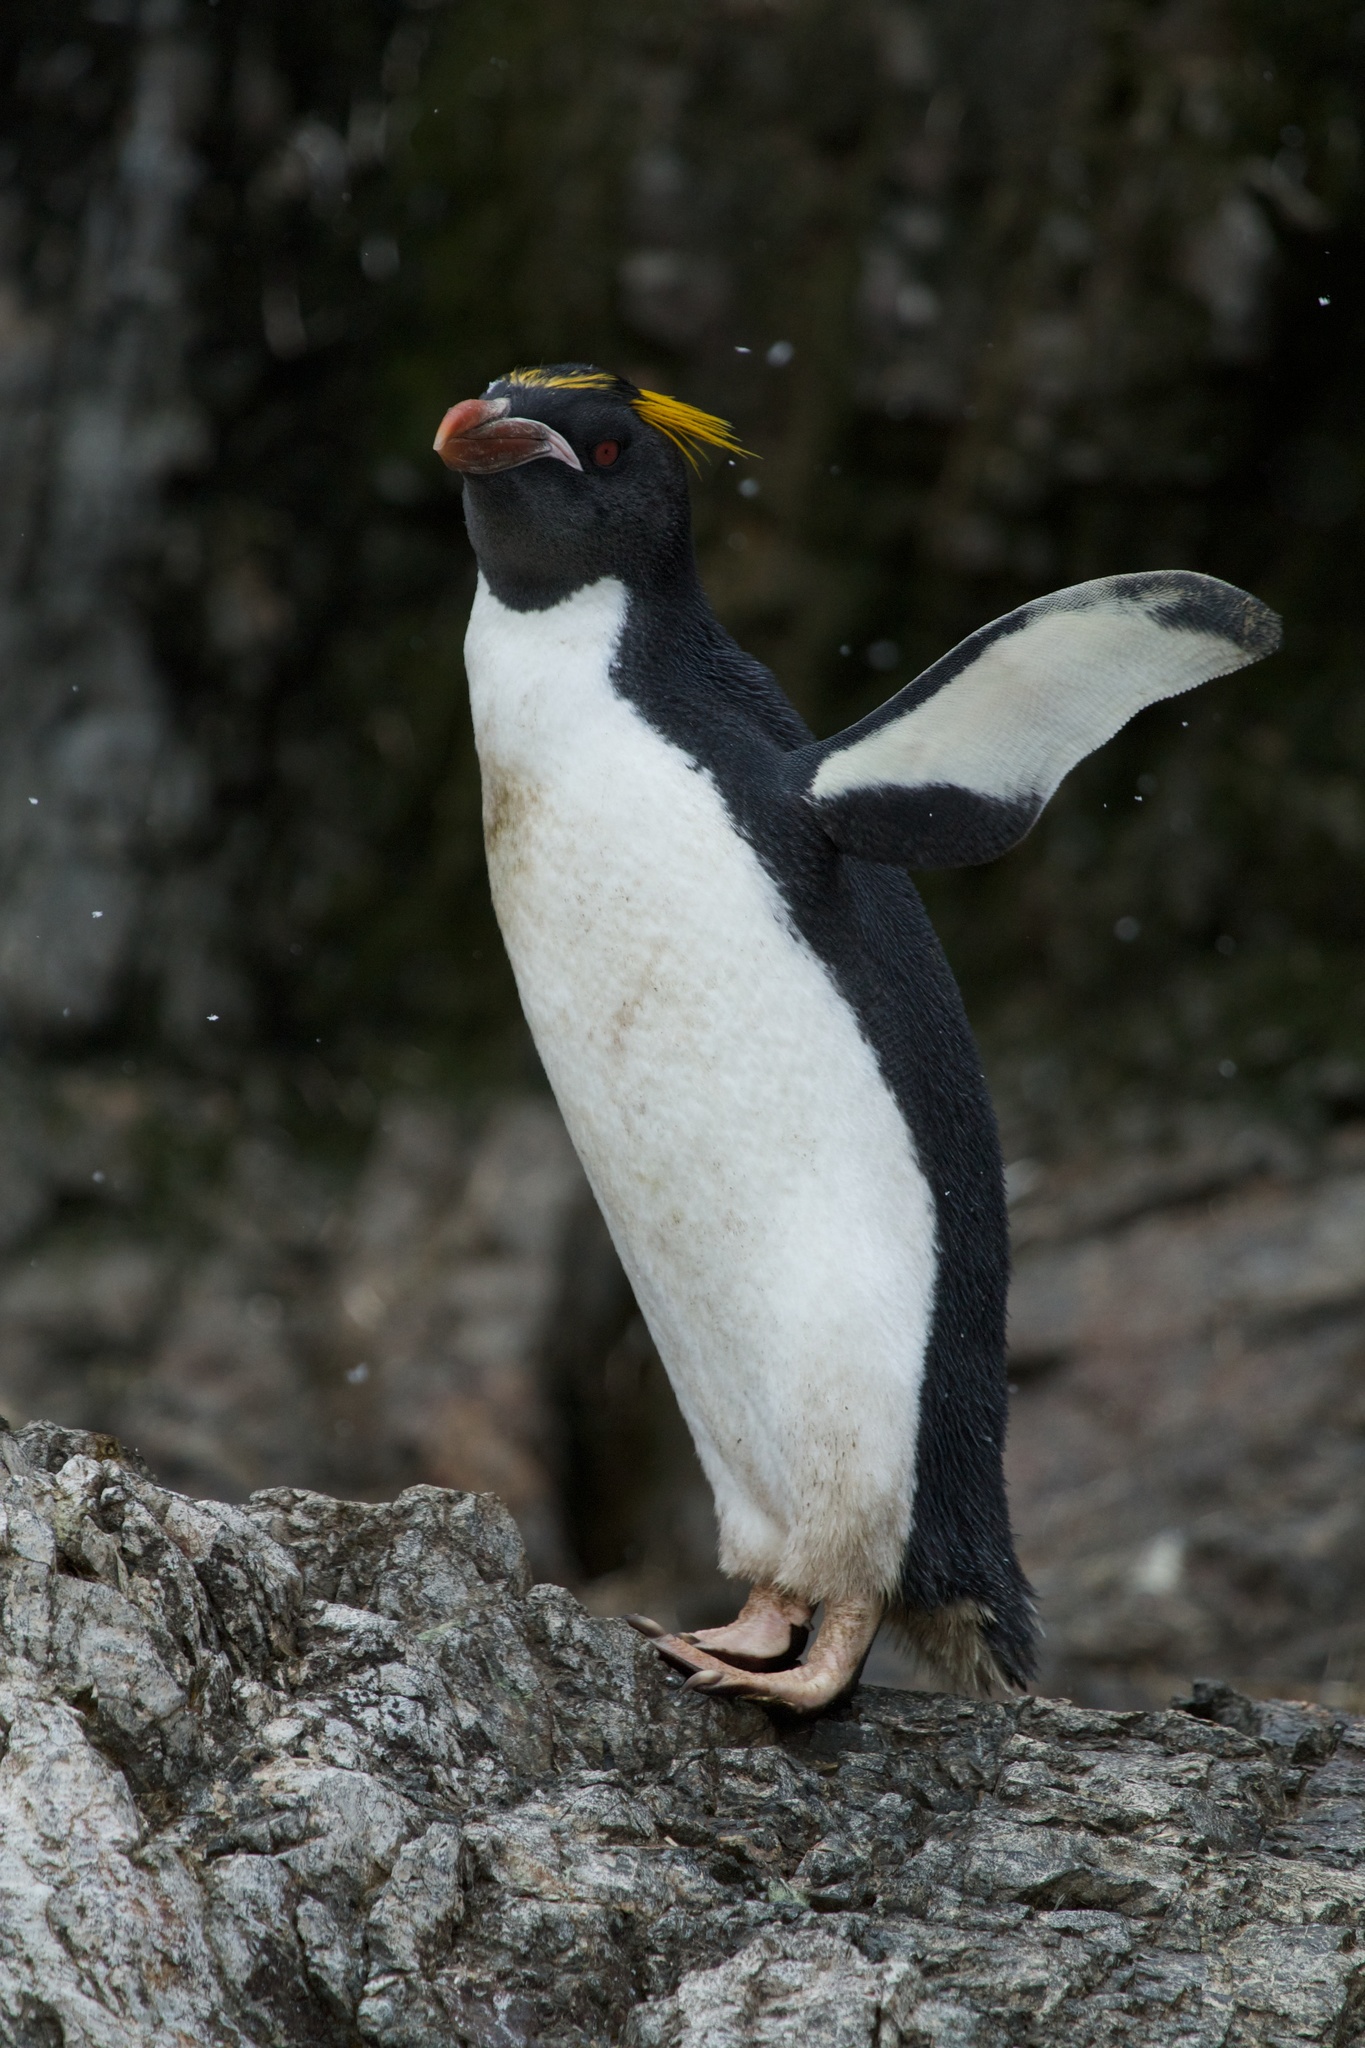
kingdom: Animalia
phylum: Chordata
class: Aves
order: Sphenisciformes
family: Spheniscidae
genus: Eudyptes
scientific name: Eudyptes chrysolophus
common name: Macaroni penguin
